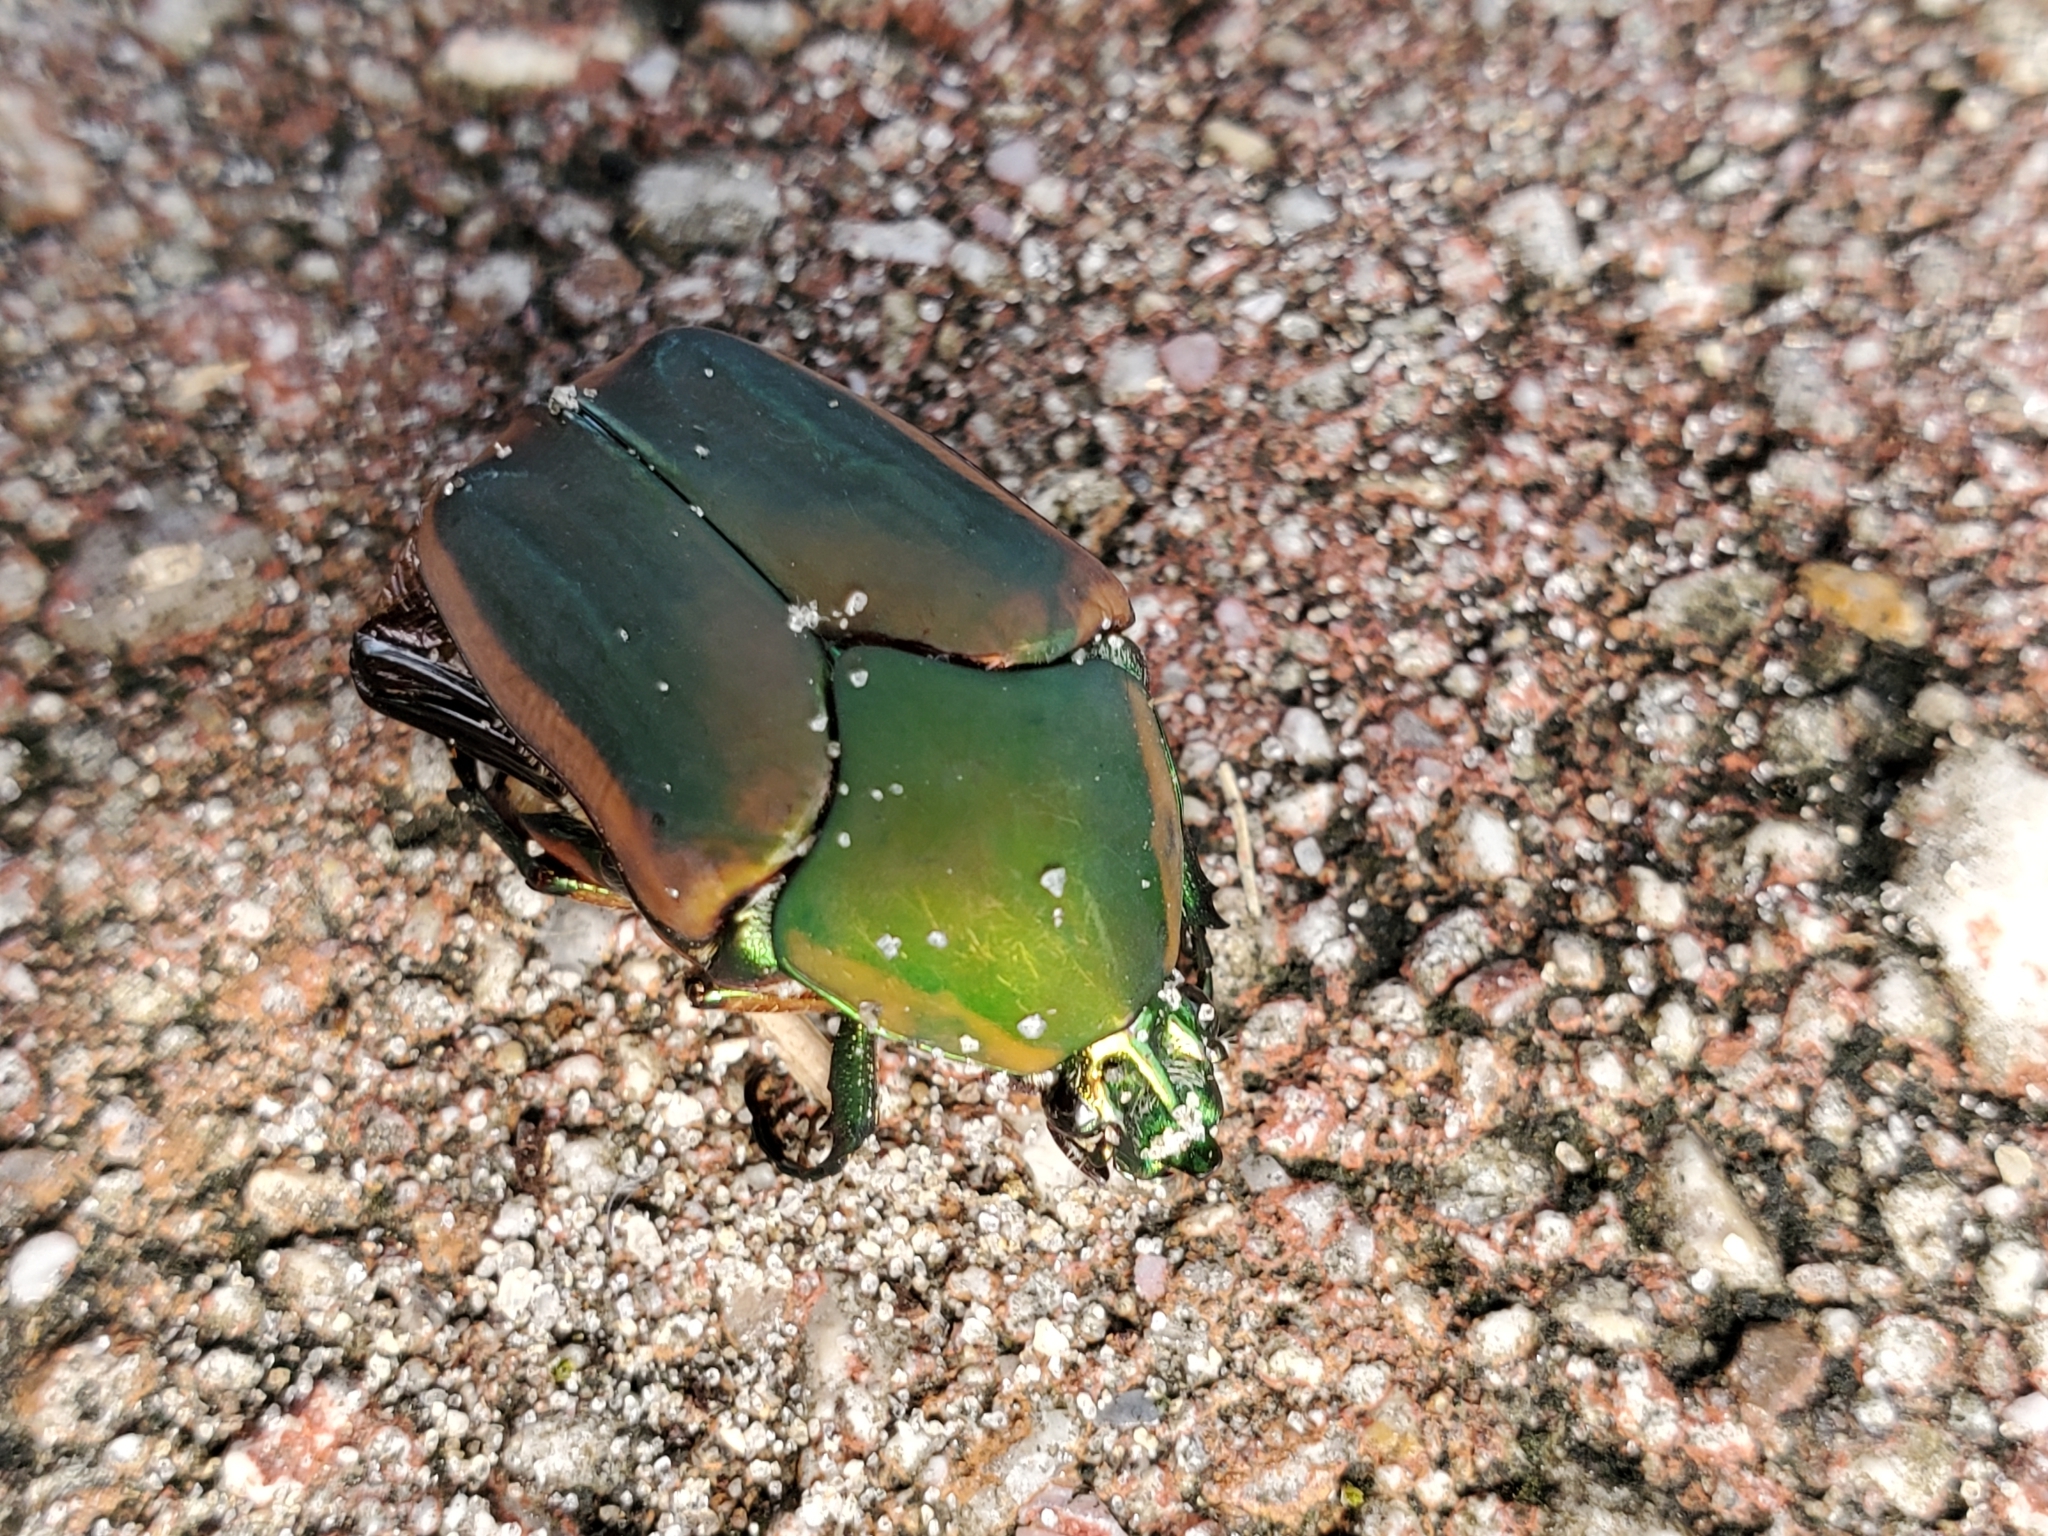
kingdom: Animalia
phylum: Arthropoda
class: Insecta
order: Coleoptera
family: Scarabaeidae
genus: Cotinis
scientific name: Cotinis nitida
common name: Common green june beetle
